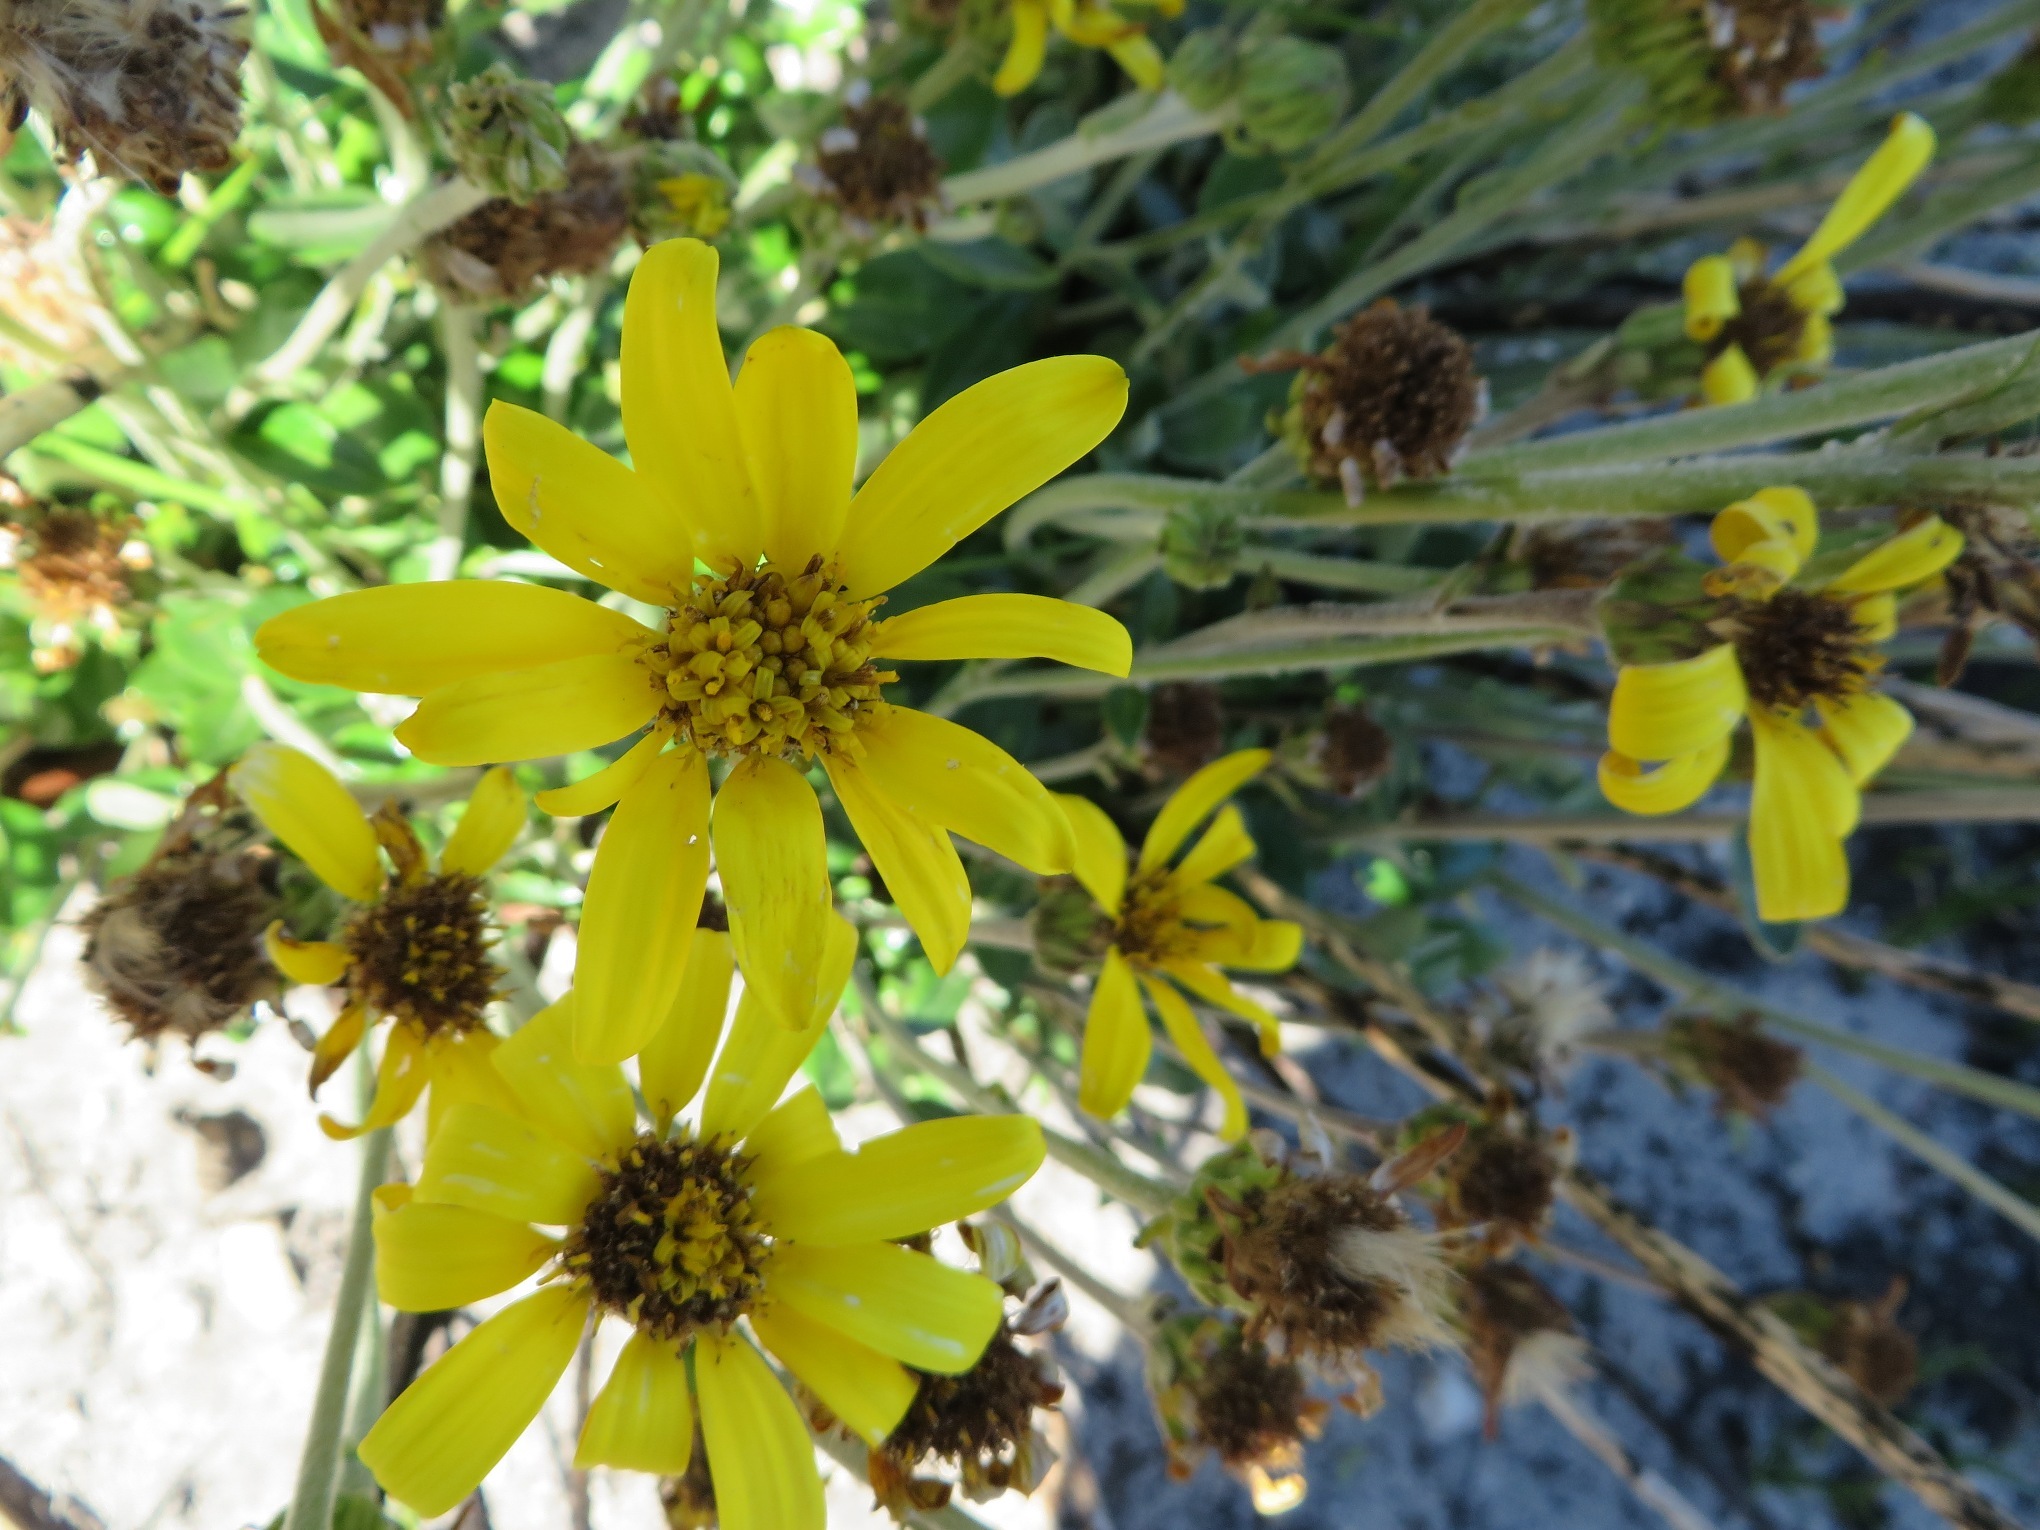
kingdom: Plantae
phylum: Tracheophyta
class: Magnoliopsida
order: Asterales
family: Asteraceae
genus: Capelio
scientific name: Capelio tabularis
